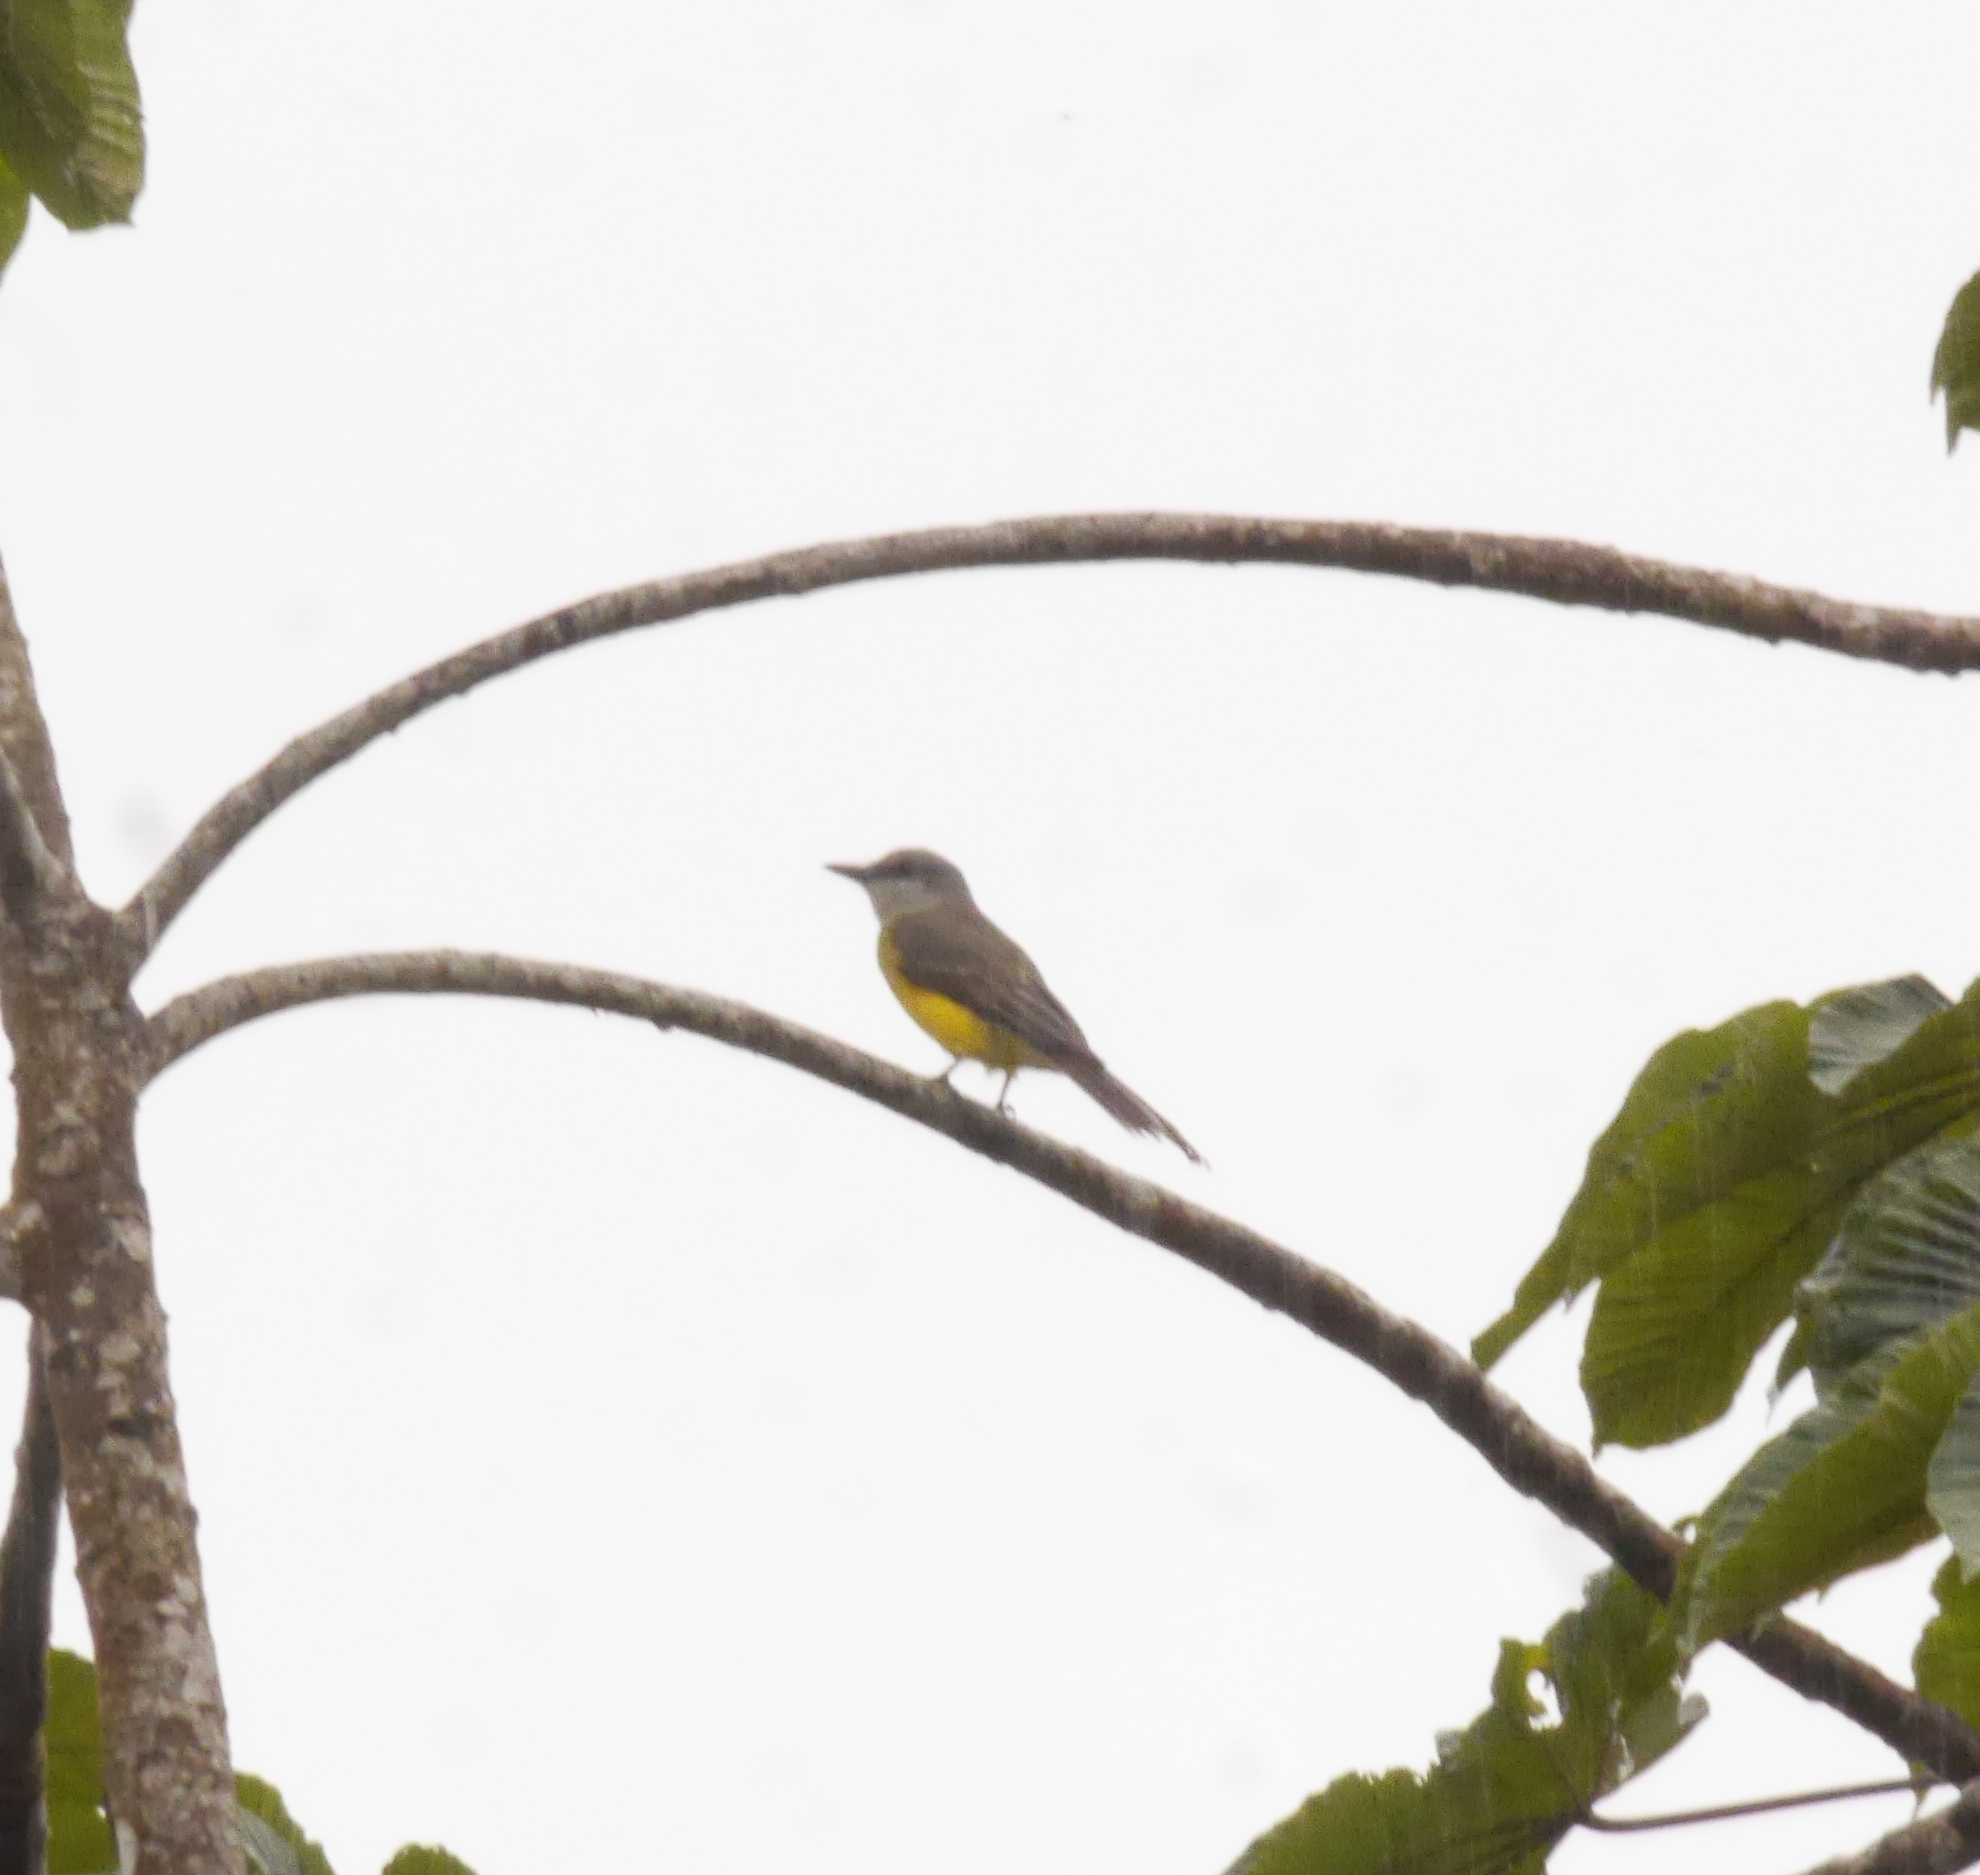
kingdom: Animalia
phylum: Chordata
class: Aves
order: Passeriformes
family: Tyrannidae
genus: Tyrannus
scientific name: Tyrannus melancholicus
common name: Tropical kingbird
